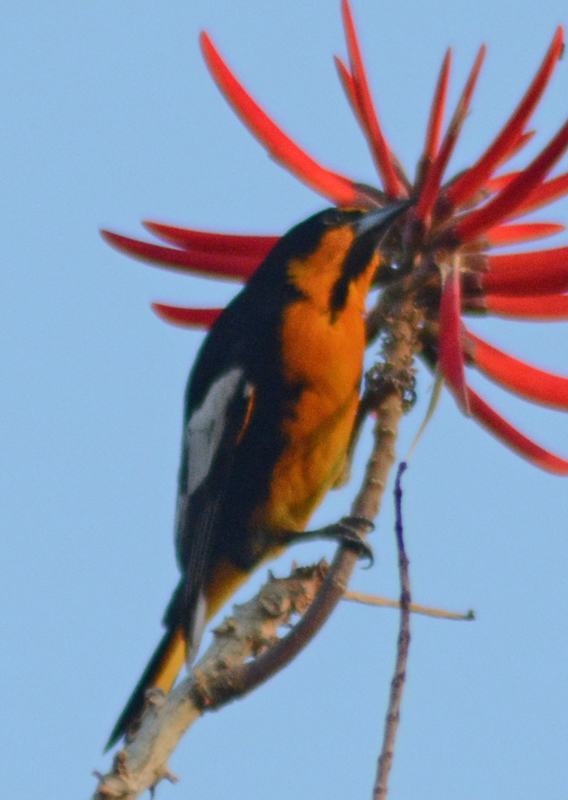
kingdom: Animalia
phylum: Chordata
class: Aves
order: Passeriformes
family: Icteridae
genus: Icterus
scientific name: Icterus abeillei
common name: Black-backed oriole
